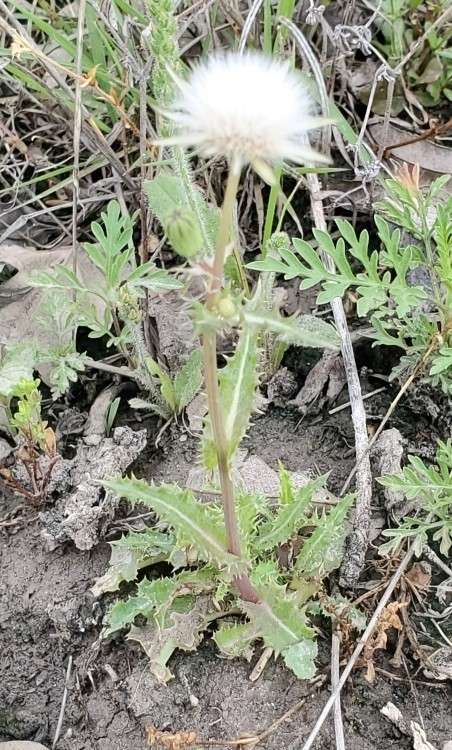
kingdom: Plantae
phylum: Tracheophyta
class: Magnoliopsida
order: Asterales
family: Asteraceae
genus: Sonchus
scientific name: Sonchus asper
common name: Prickly sow-thistle
